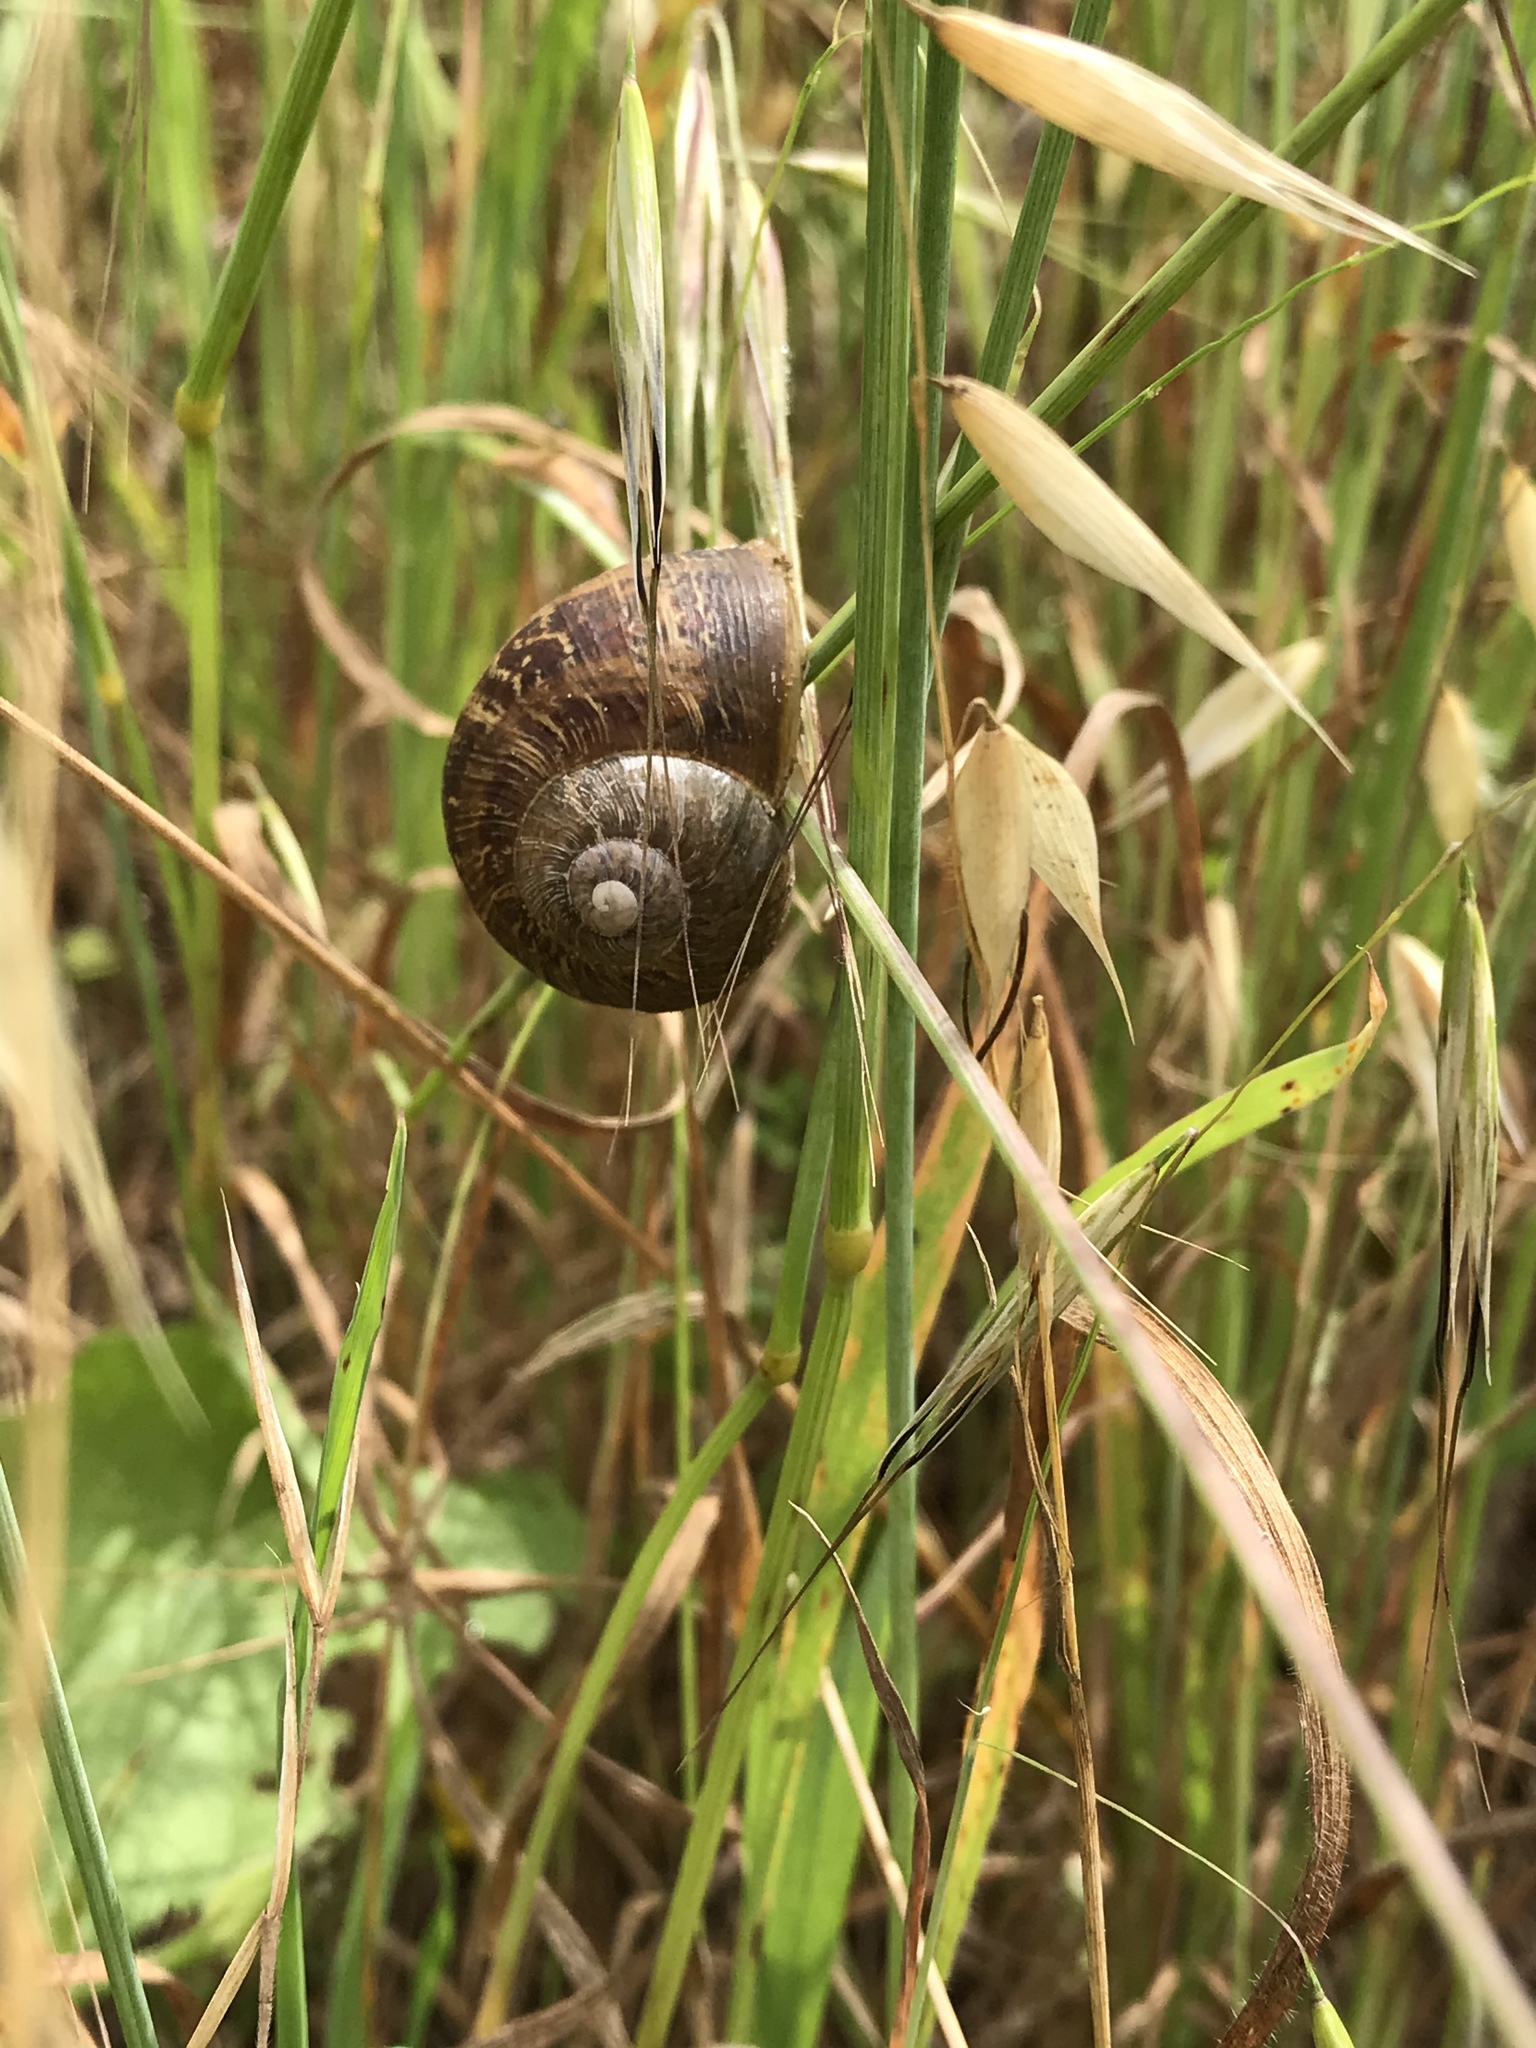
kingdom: Animalia
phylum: Mollusca
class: Gastropoda
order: Stylommatophora
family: Helicidae
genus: Cornu
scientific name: Cornu aspersum
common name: Brown garden snail
